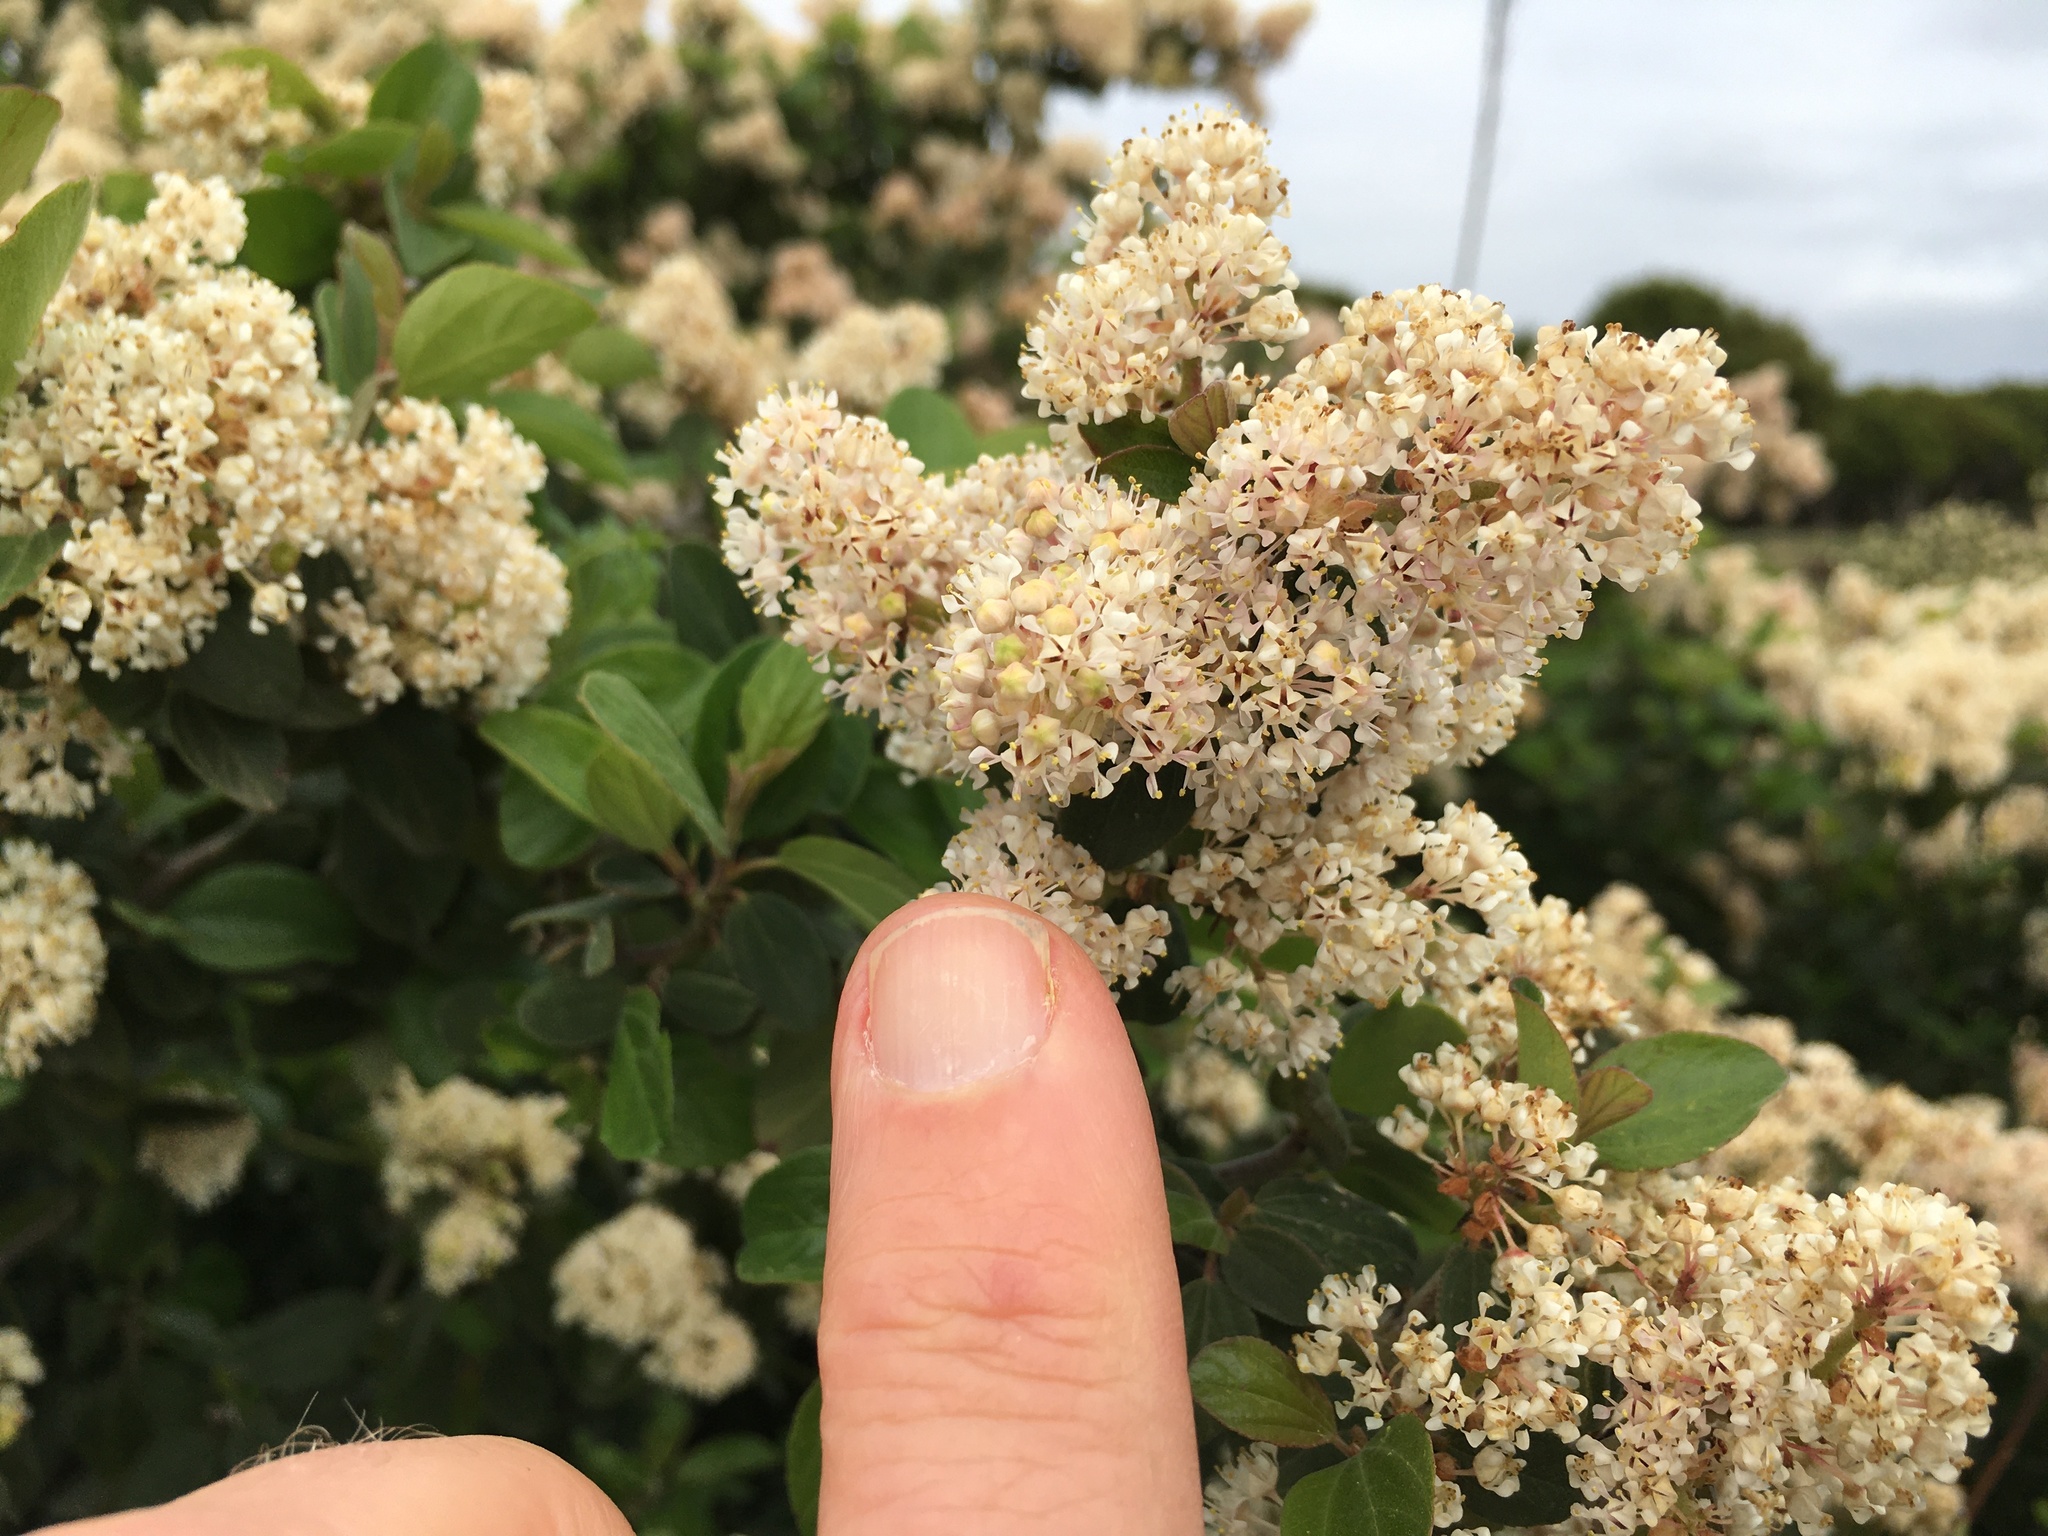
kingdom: Plantae
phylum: Tracheophyta
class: Magnoliopsida
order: Rosales
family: Rhamnaceae
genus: Ceanothus
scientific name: Ceanothus incanus
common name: Coast whitethorn
